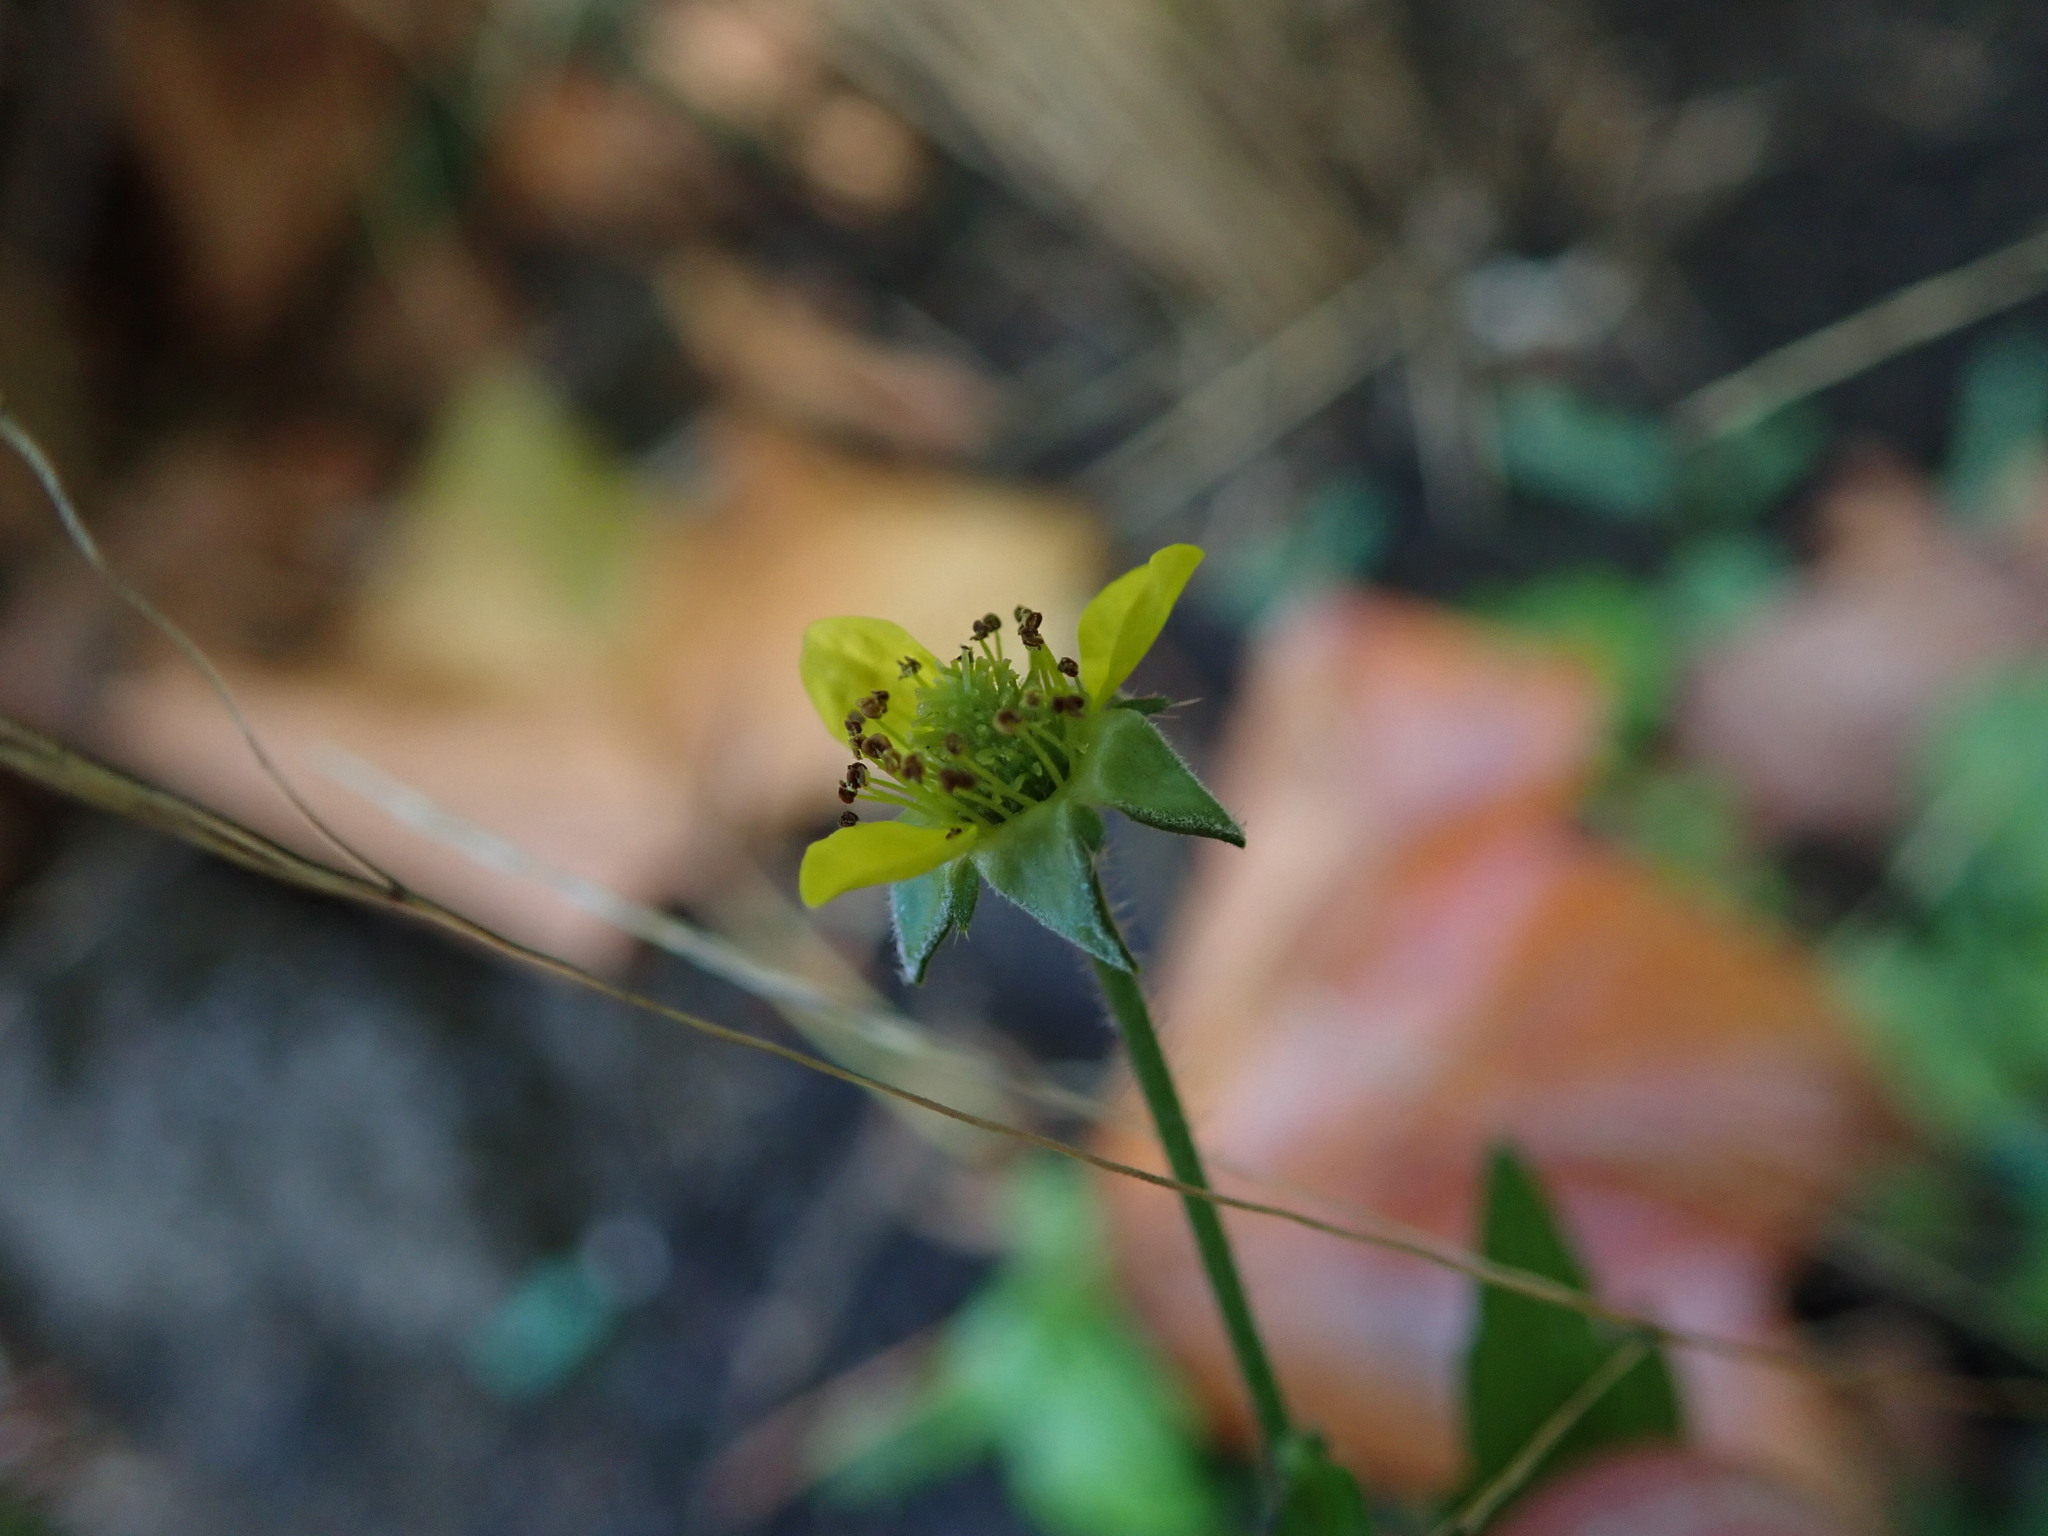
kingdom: Plantae
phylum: Tracheophyta
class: Magnoliopsida
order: Rosales
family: Rosaceae
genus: Geum
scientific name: Geum urbanum
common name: Wood avens
